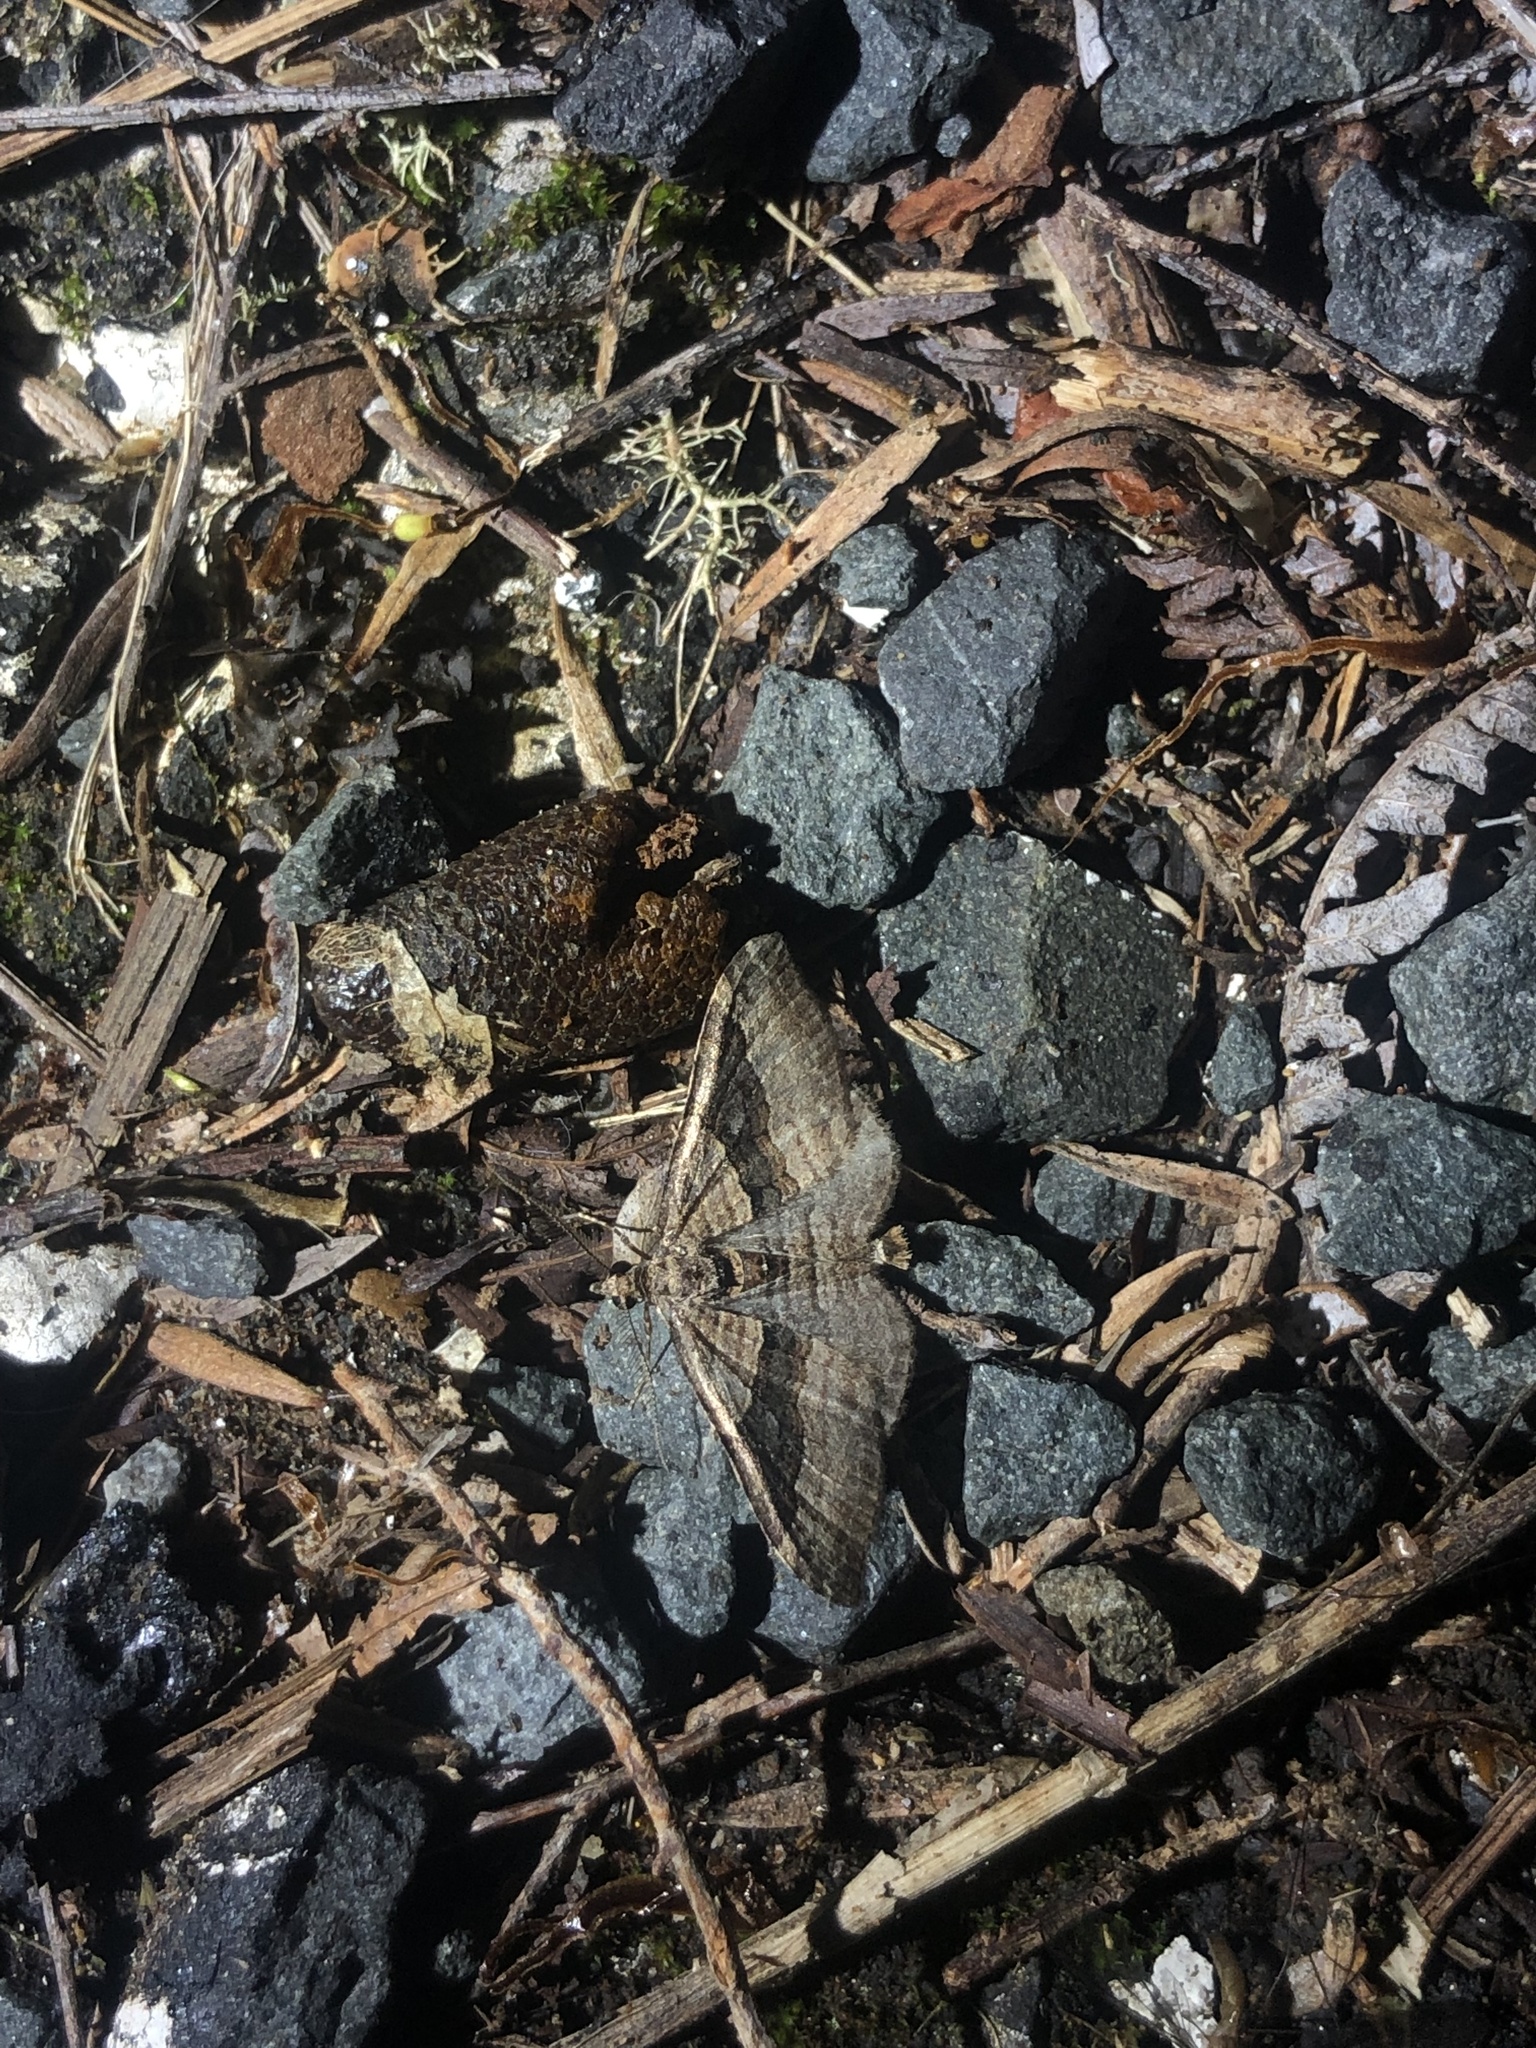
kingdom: Animalia
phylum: Arthropoda
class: Insecta
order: Lepidoptera
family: Geometridae
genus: Epyaxa
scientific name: Epyaxa lucidata
